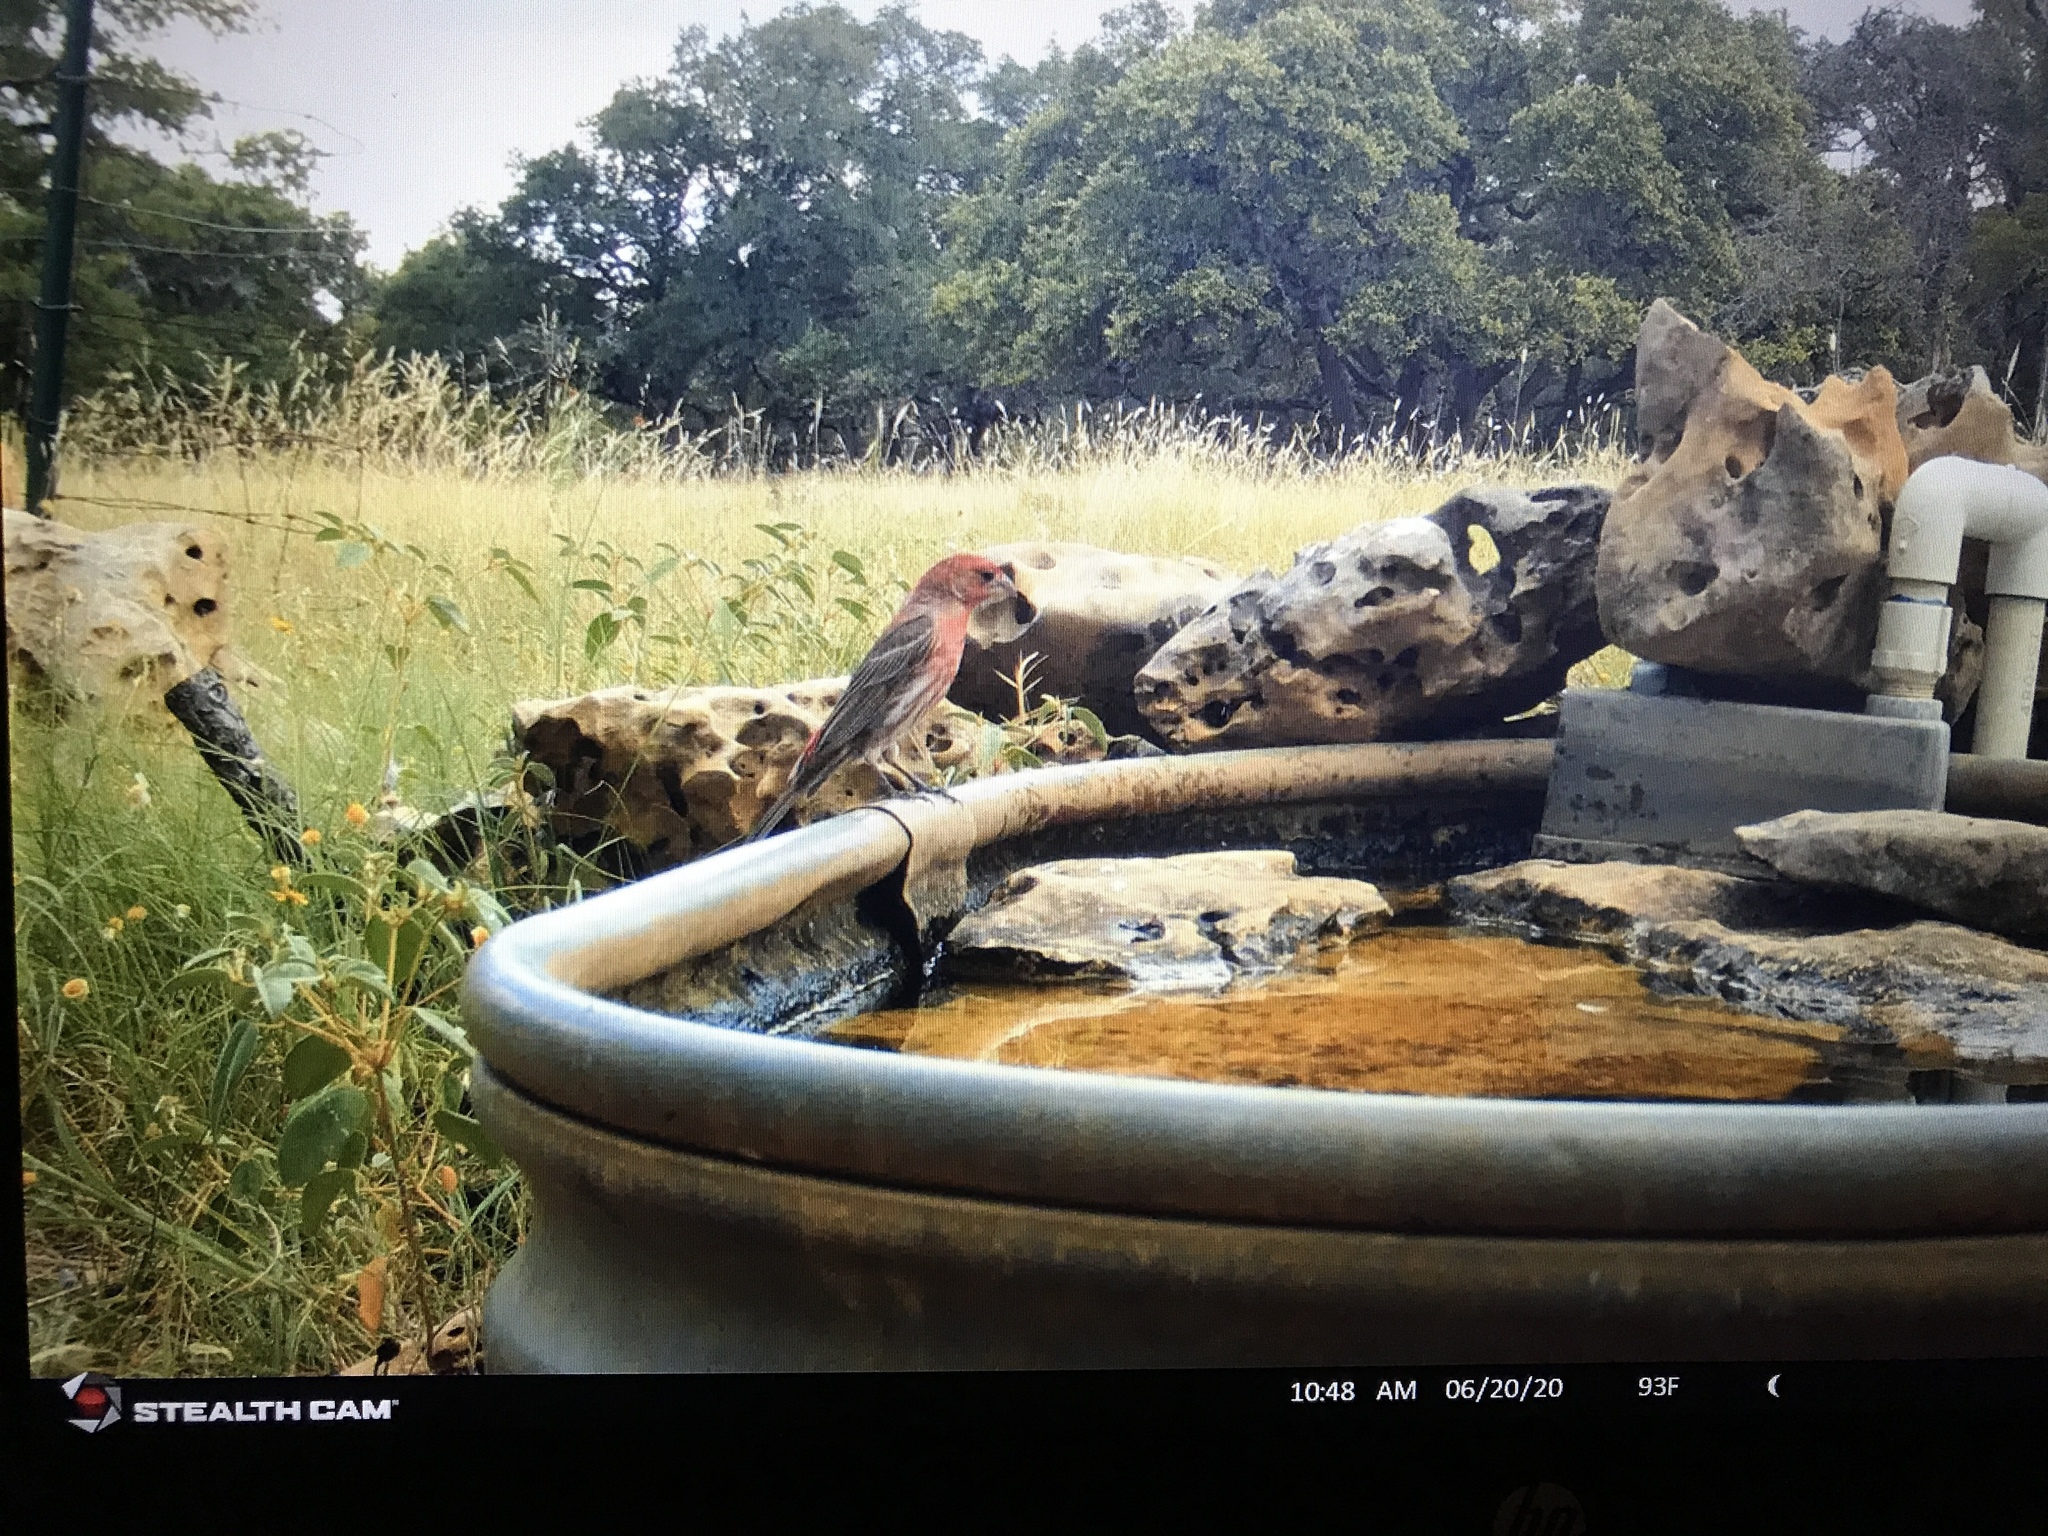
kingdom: Animalia
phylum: Chordata
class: Aves
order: Passeriformes
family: Fringillidae
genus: Haemorhous
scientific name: Haemorhous mexicanus
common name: House finch
